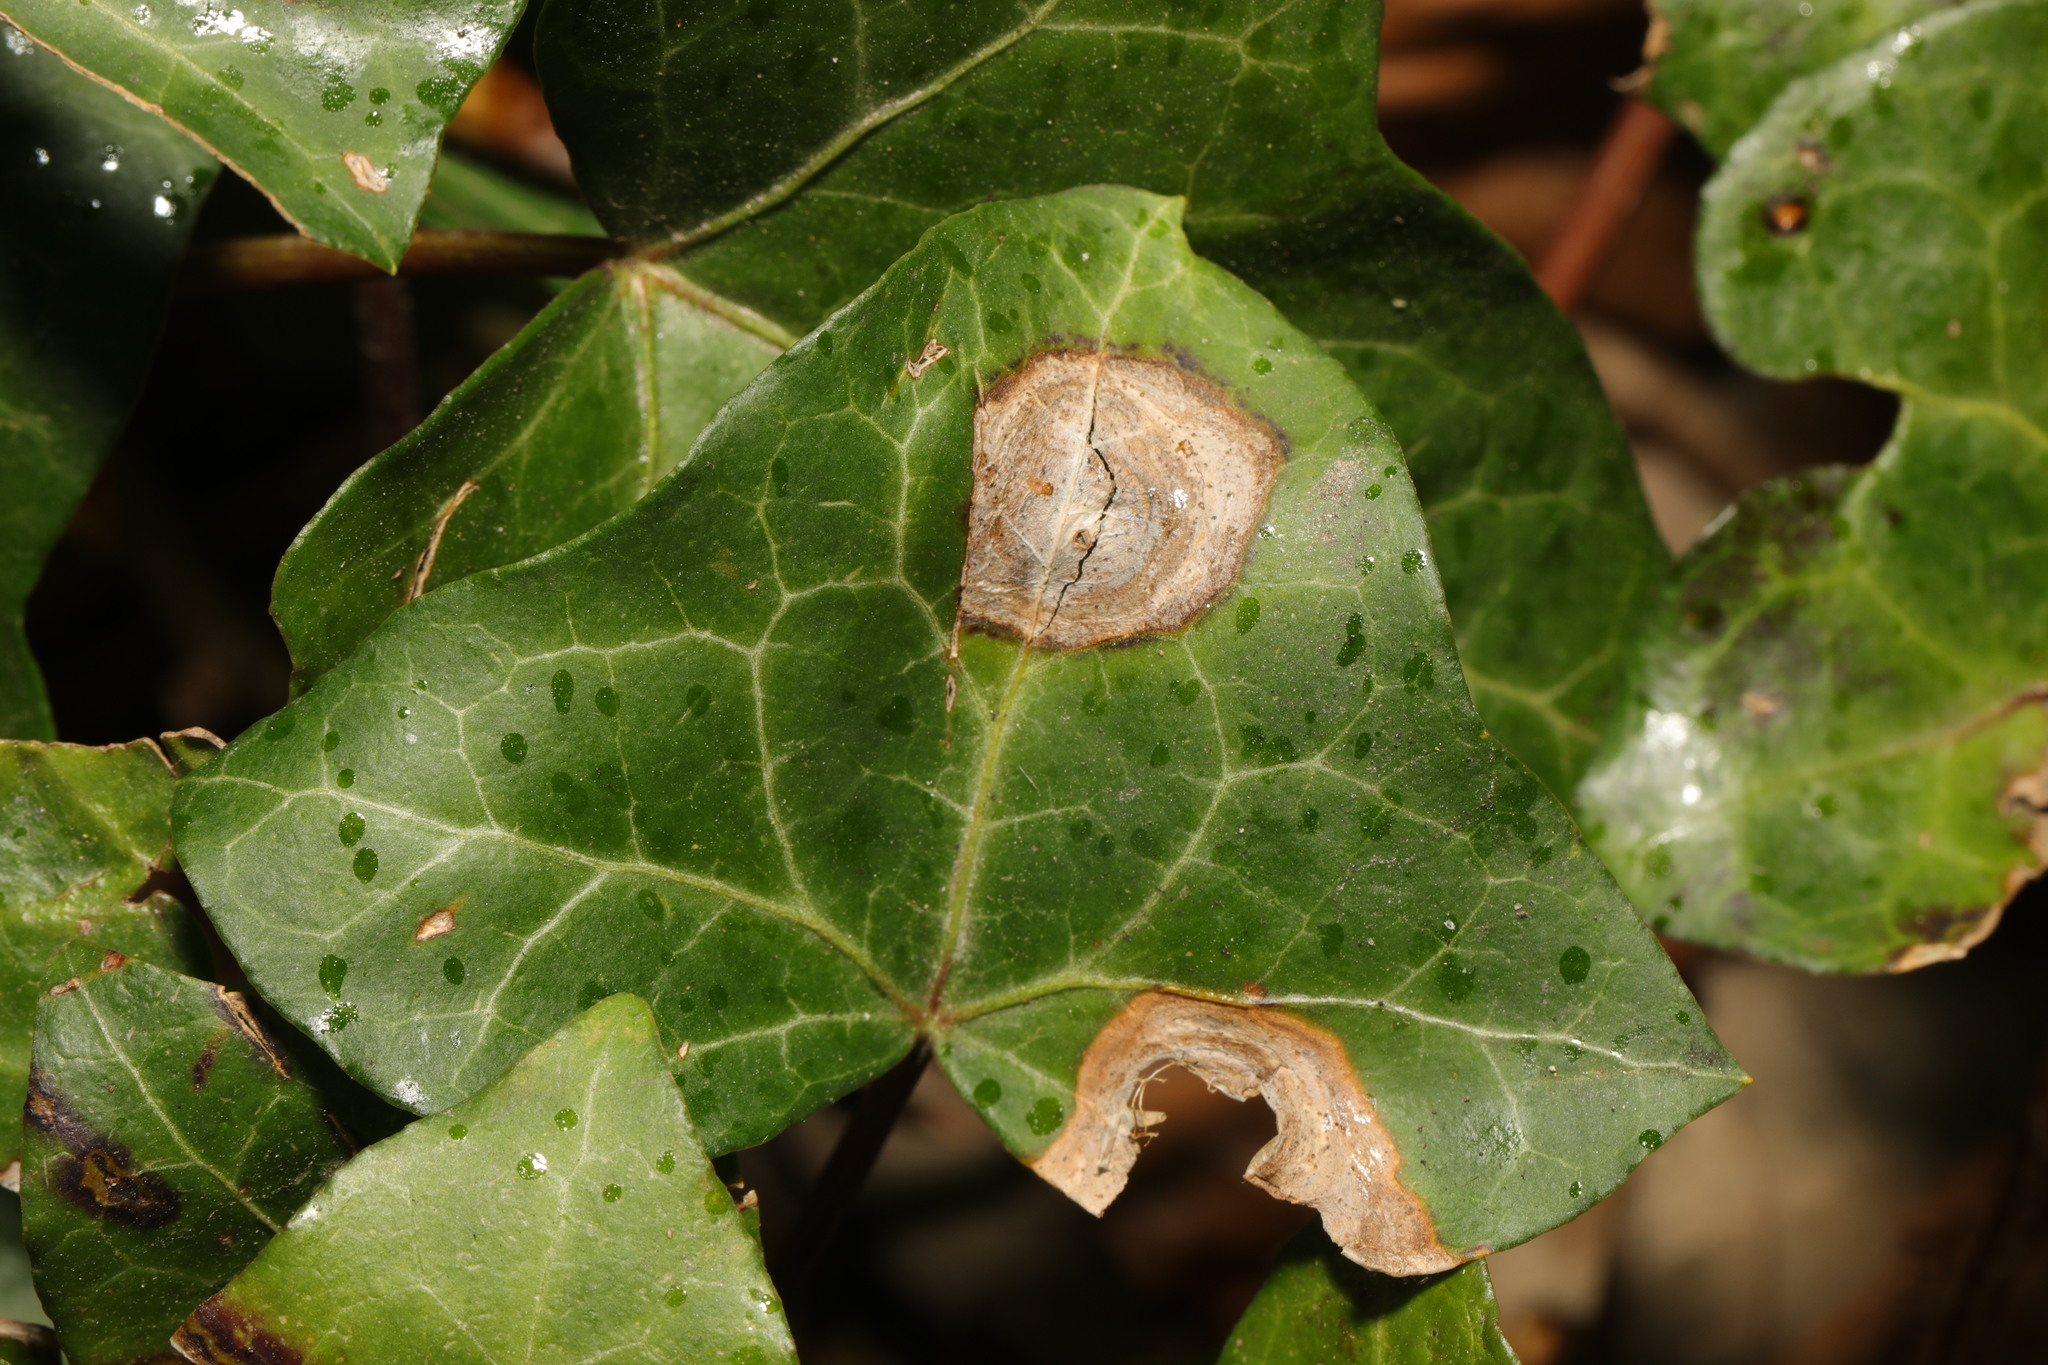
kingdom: Fungi
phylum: Ascomycota
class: Dothideomycetes
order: Pleosporales
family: Didymellaceae
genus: Boeremia
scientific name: Boeremia hedericola
